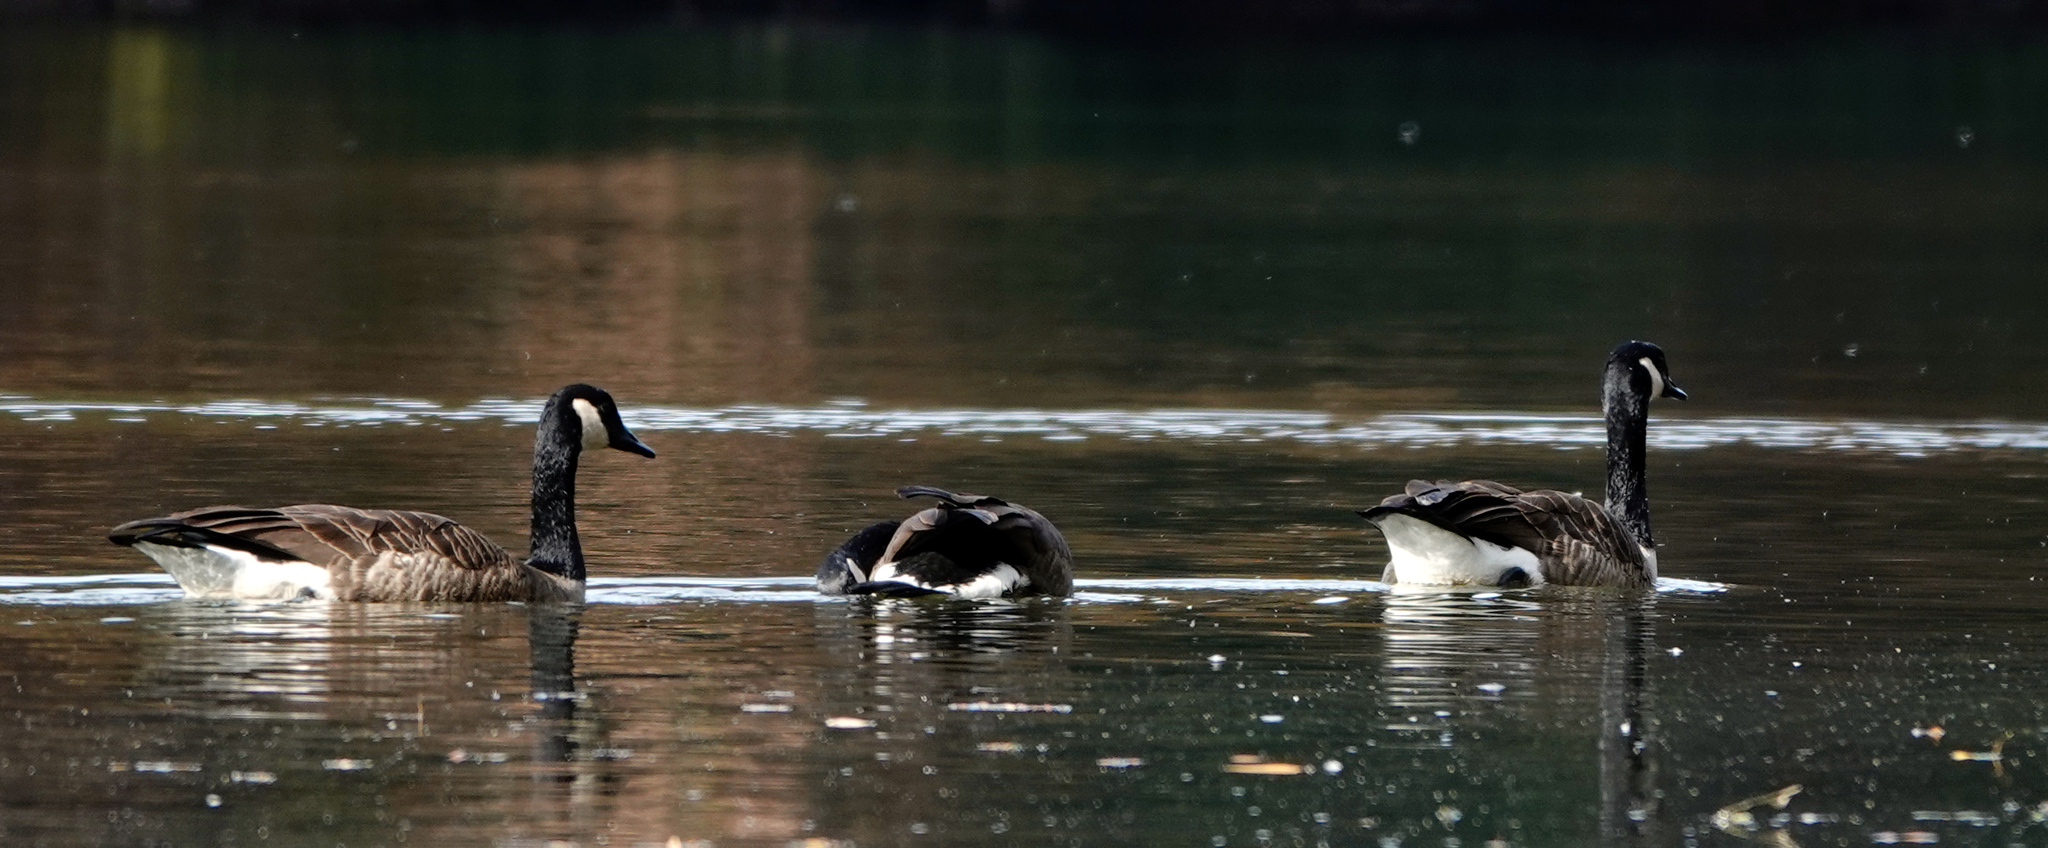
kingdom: Animalia
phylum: Chordata
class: Aves
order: Anseriformes
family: Anatidae
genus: Branta
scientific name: Branta canadensis
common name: Canada goose
